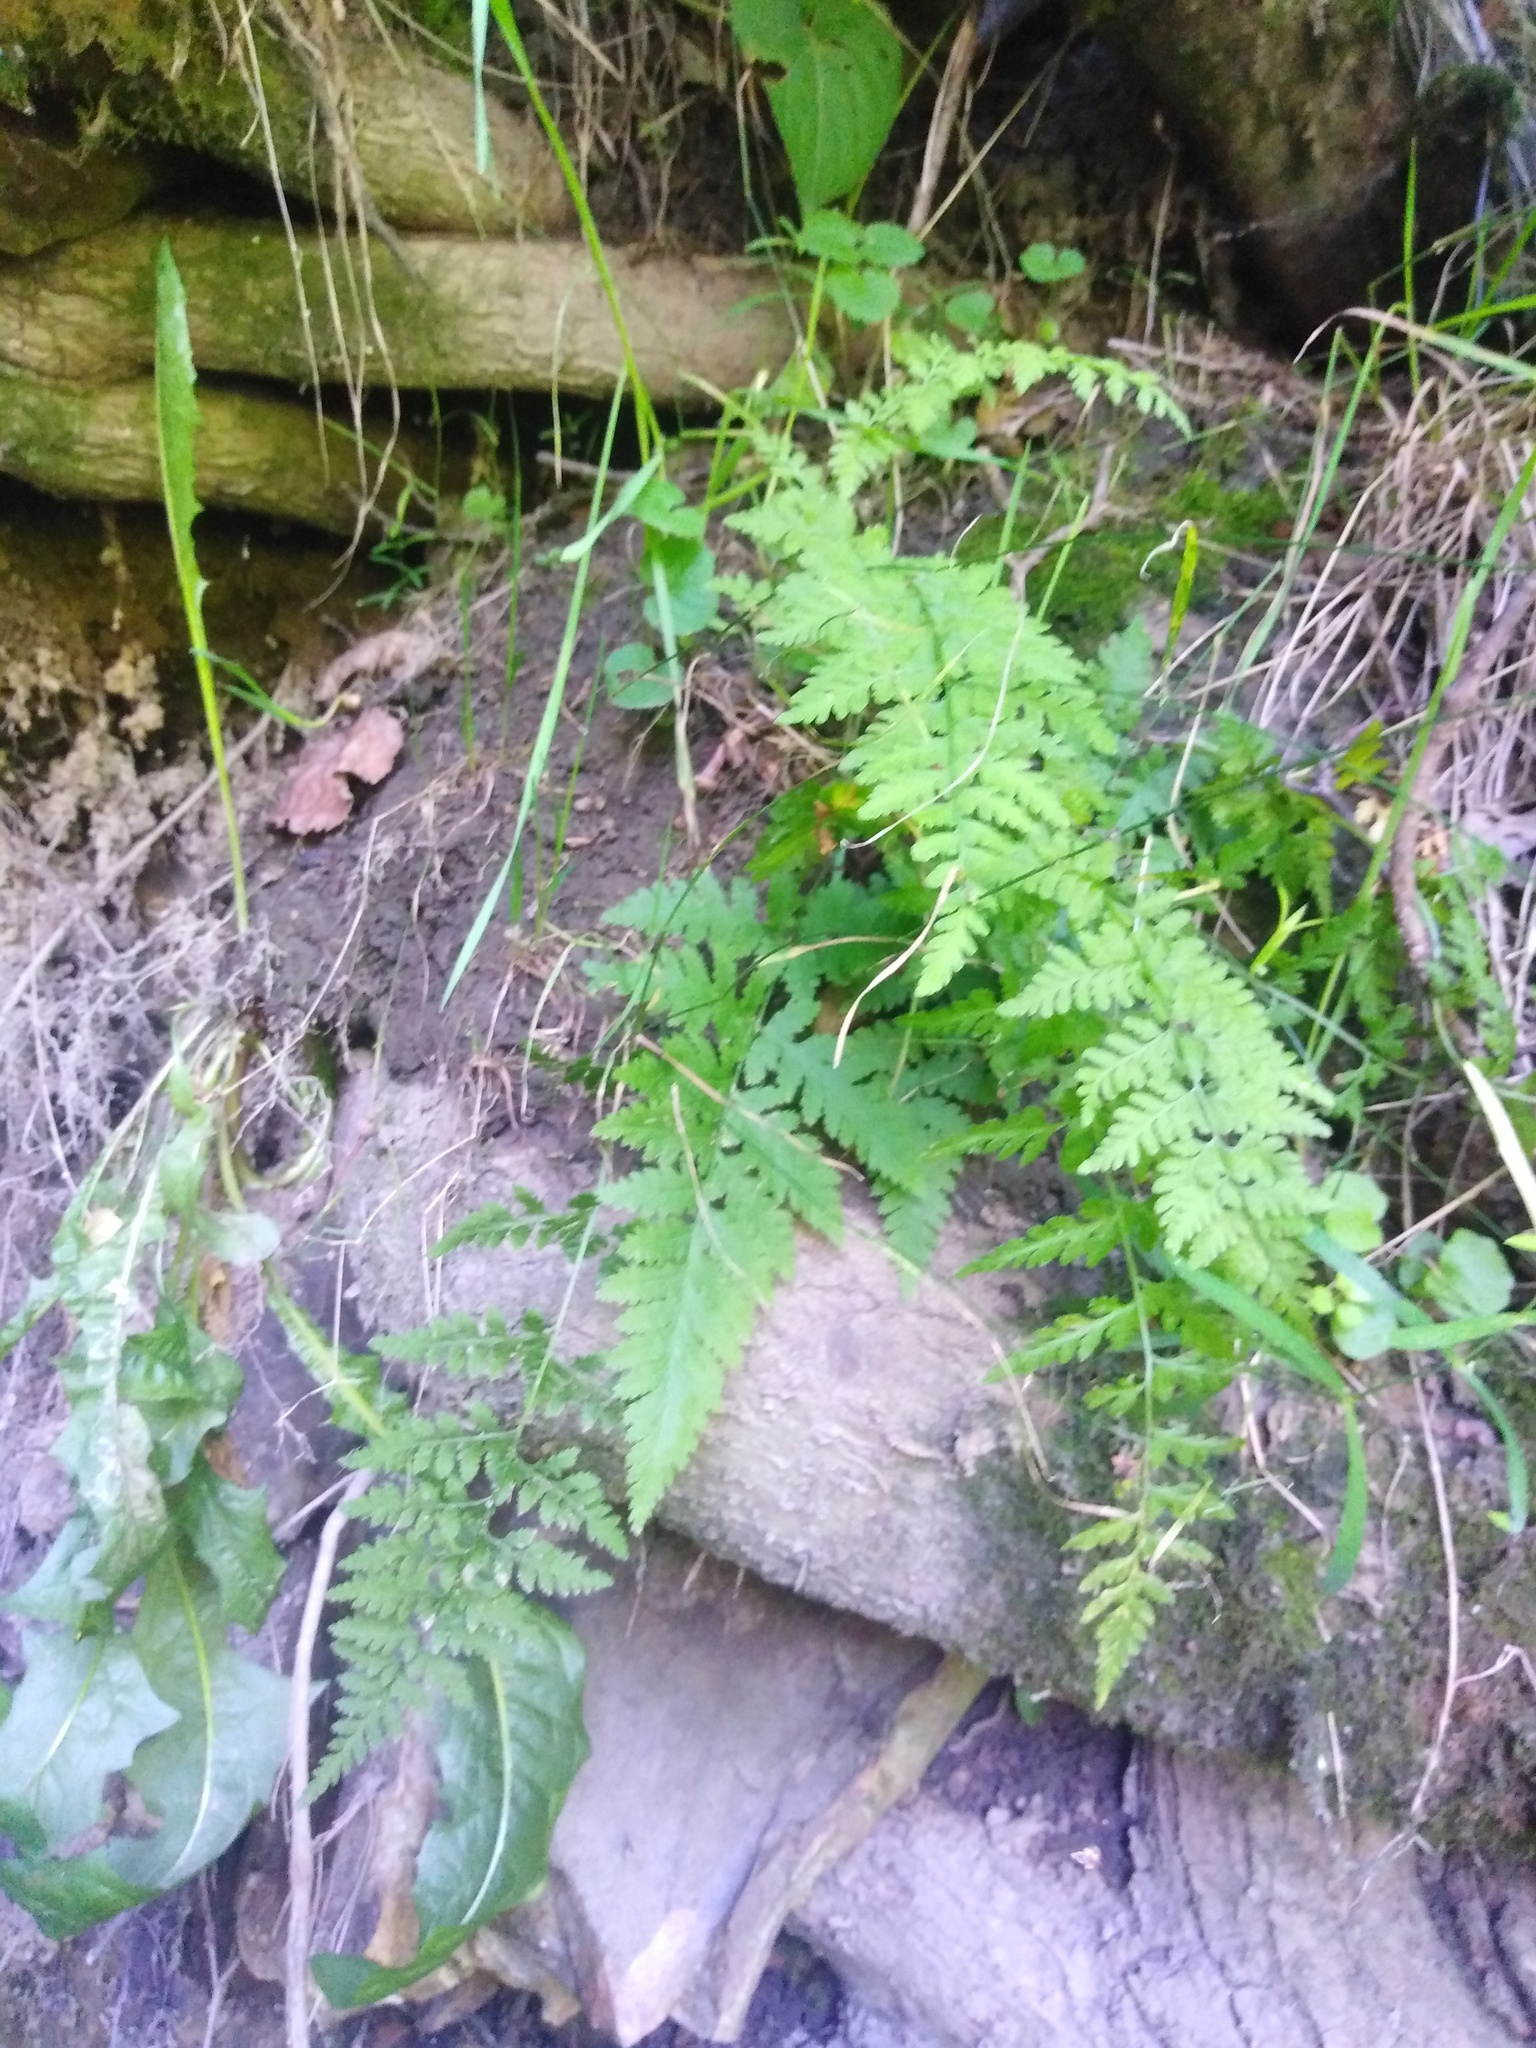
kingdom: Plantae
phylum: Tracheophyta
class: Polypodiopsida
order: Polypodiales
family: Cystopteridaceae
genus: Cystopteris
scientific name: Cystopteris fragilis
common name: Brittle bladder fern
